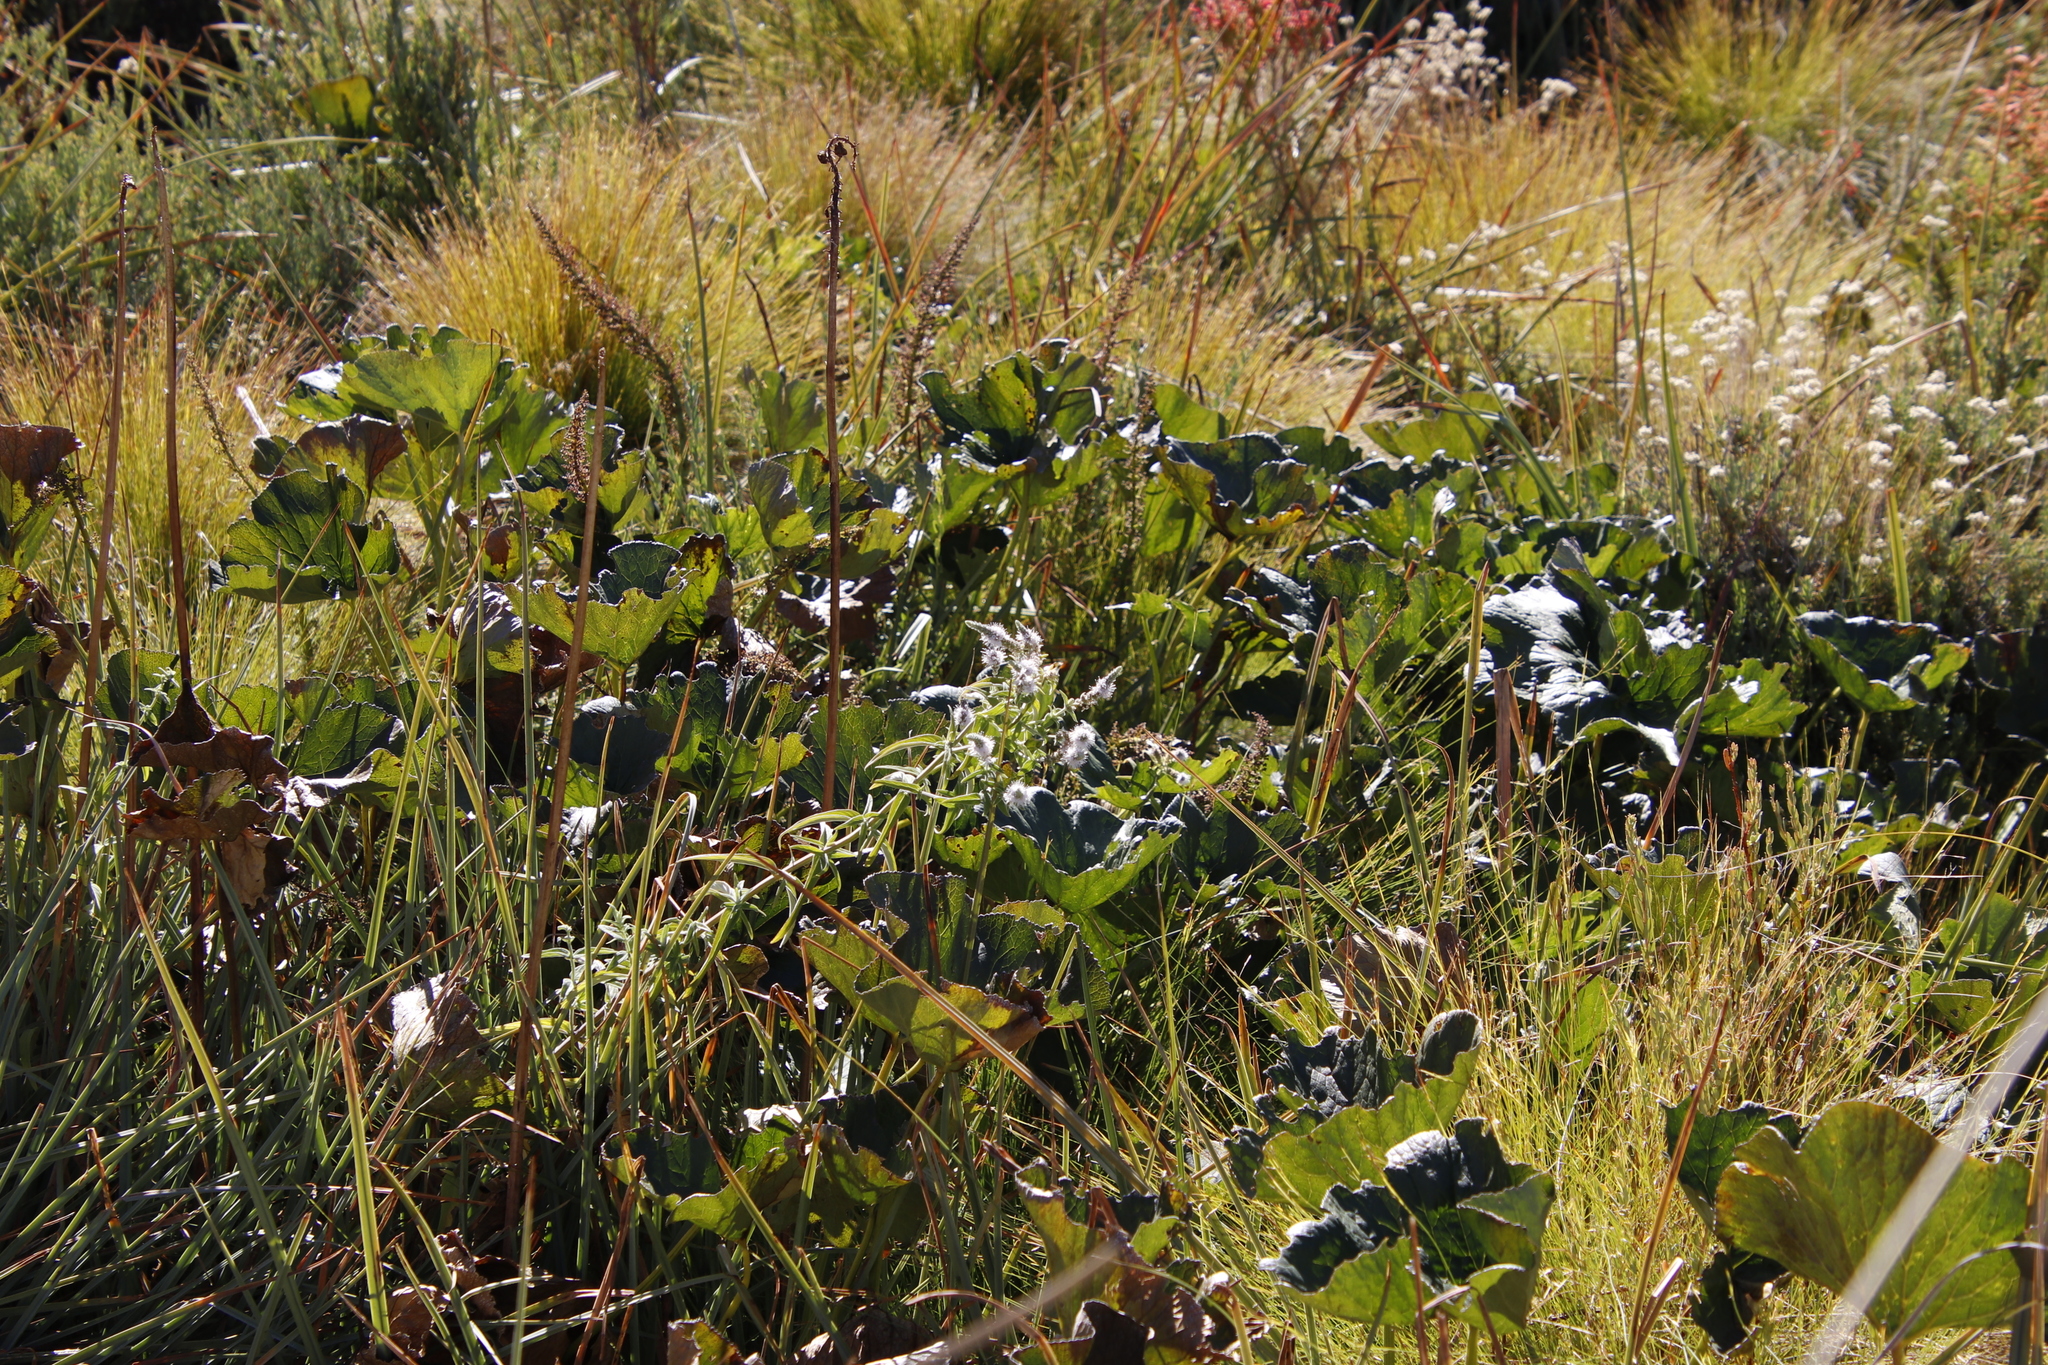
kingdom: Plantae
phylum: Tracheophyta
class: Magnoliopsida
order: Gunnerales
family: Gunneraceae
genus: Gunnera
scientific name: Gunnera perpensa
